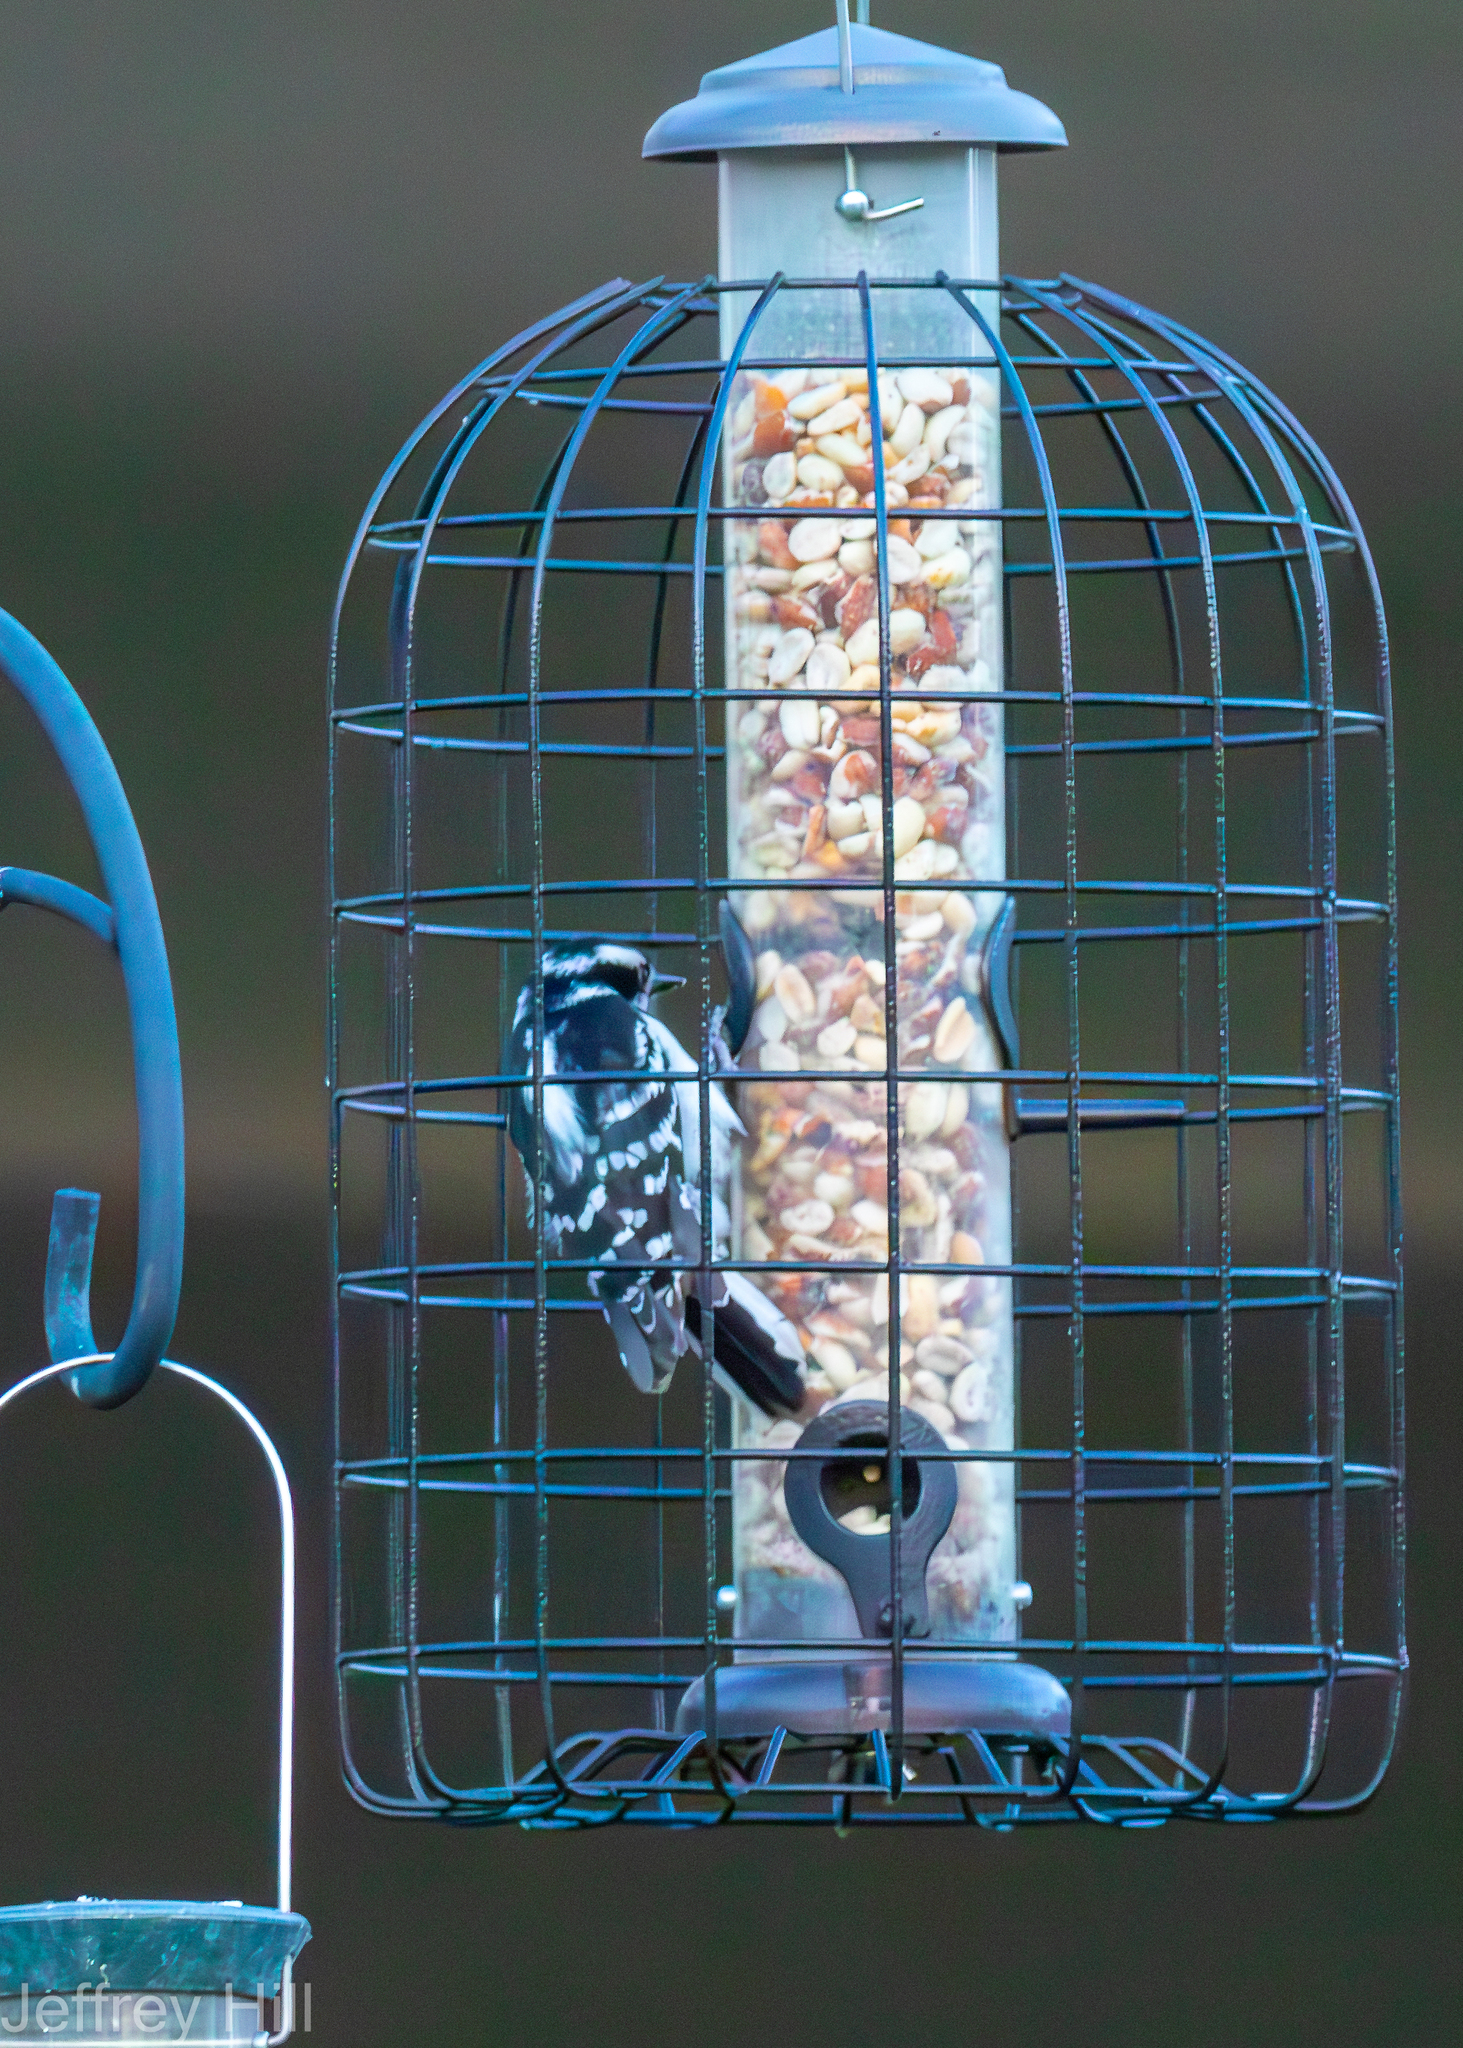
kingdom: Animalia
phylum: Chordata
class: Aves
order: Piciformes
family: Picidae
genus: Dryobates
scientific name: Dryobates pubescens
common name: Downy woodpecker
